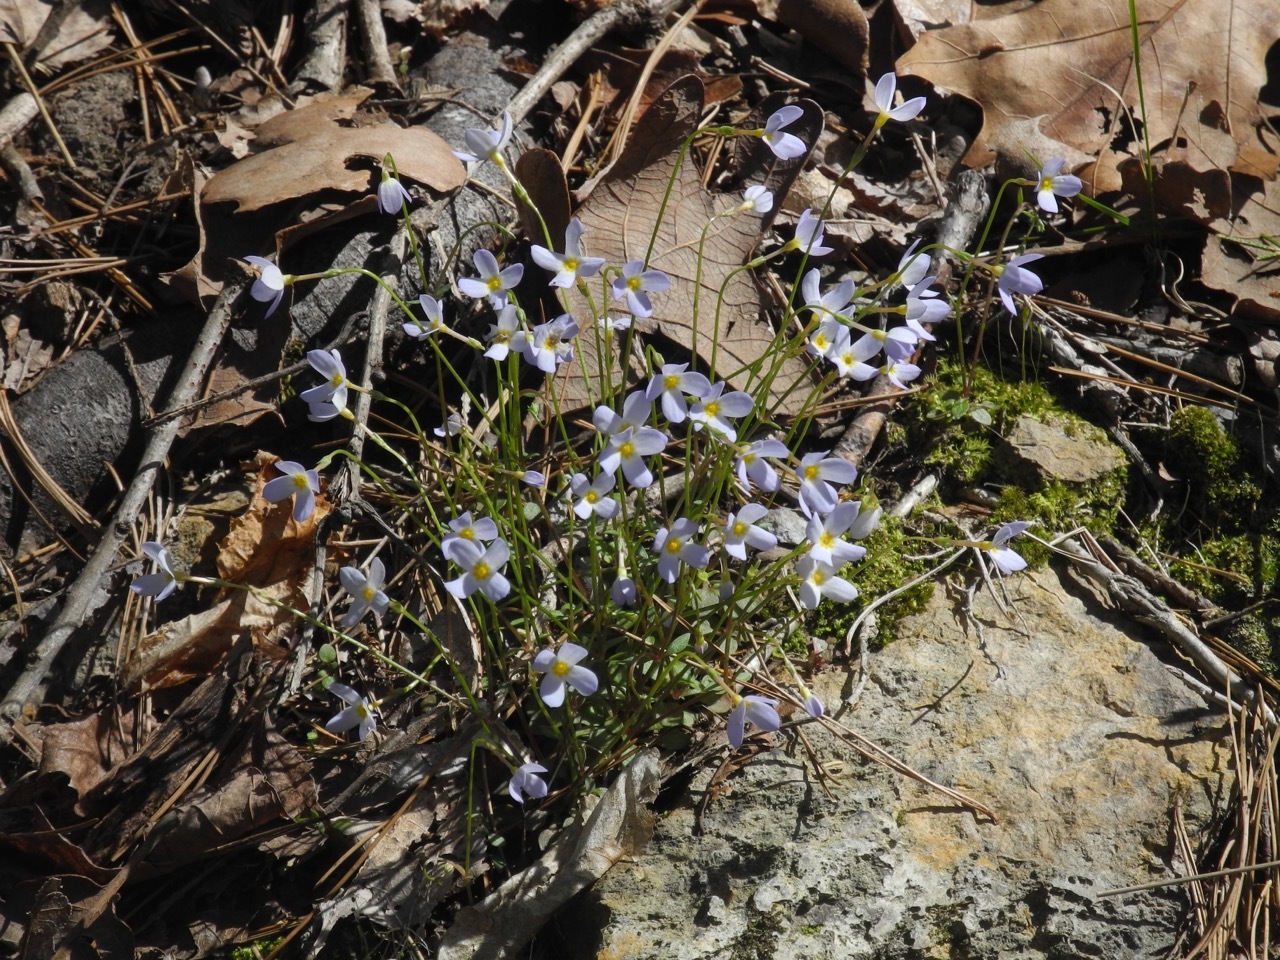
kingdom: Plantae
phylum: Tracheophyta
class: Magnoliopsida
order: Gentianales
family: Rubiaceae
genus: Houstonia
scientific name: Houstonia caerulea
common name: Bluets
